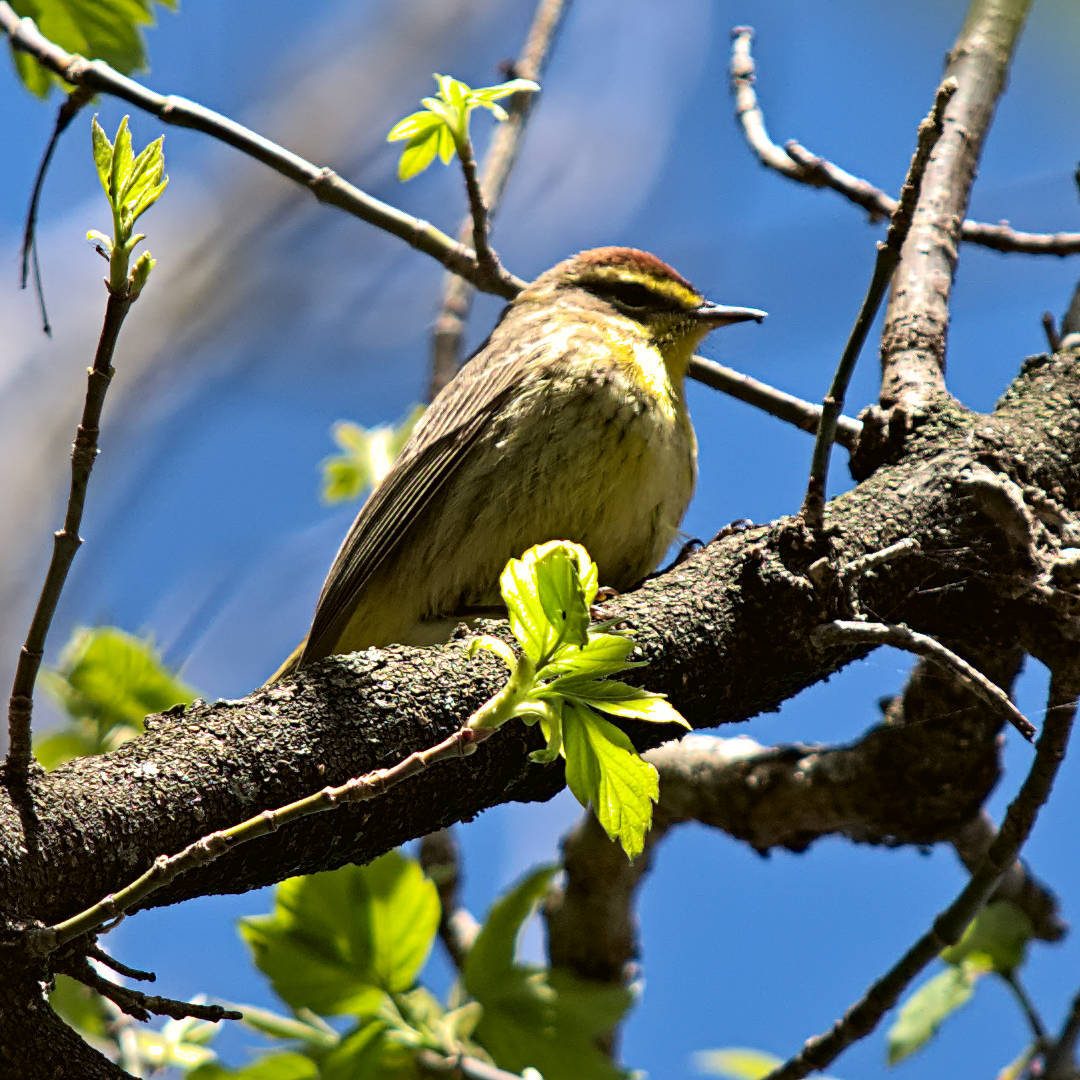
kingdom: Animalia
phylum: Chordata
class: Aves
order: Passeriformes
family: Parulidae
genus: Setophaga
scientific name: Setophaga palmarum
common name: Palm warbler
